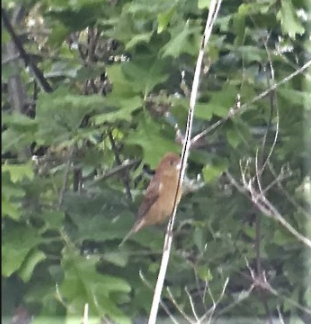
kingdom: Animalia
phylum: Chordata
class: Aves
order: Passeriformes
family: Cardinalidae
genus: Passerina
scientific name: Passerina cyanea
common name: Indigo bunting
